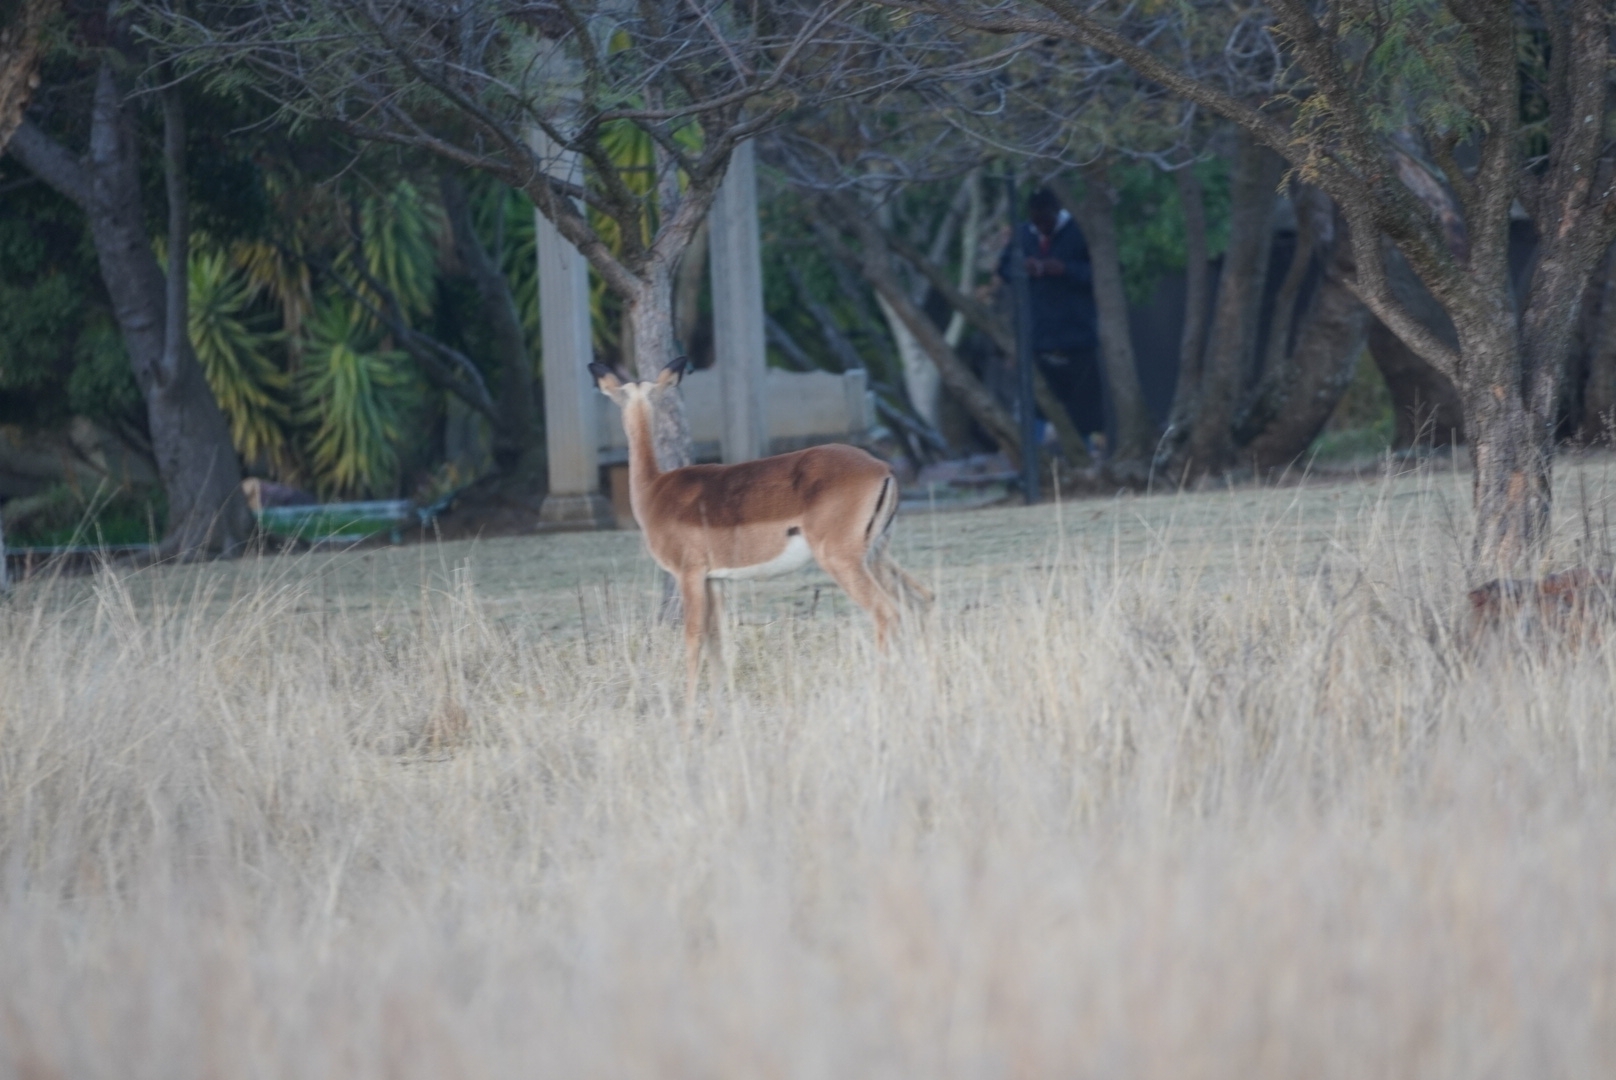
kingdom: Animalia
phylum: Chordata
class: Mammalia
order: Artiodactyla
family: Bovidae
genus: Aepyceros
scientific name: Aepyceros melampus
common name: Impala
